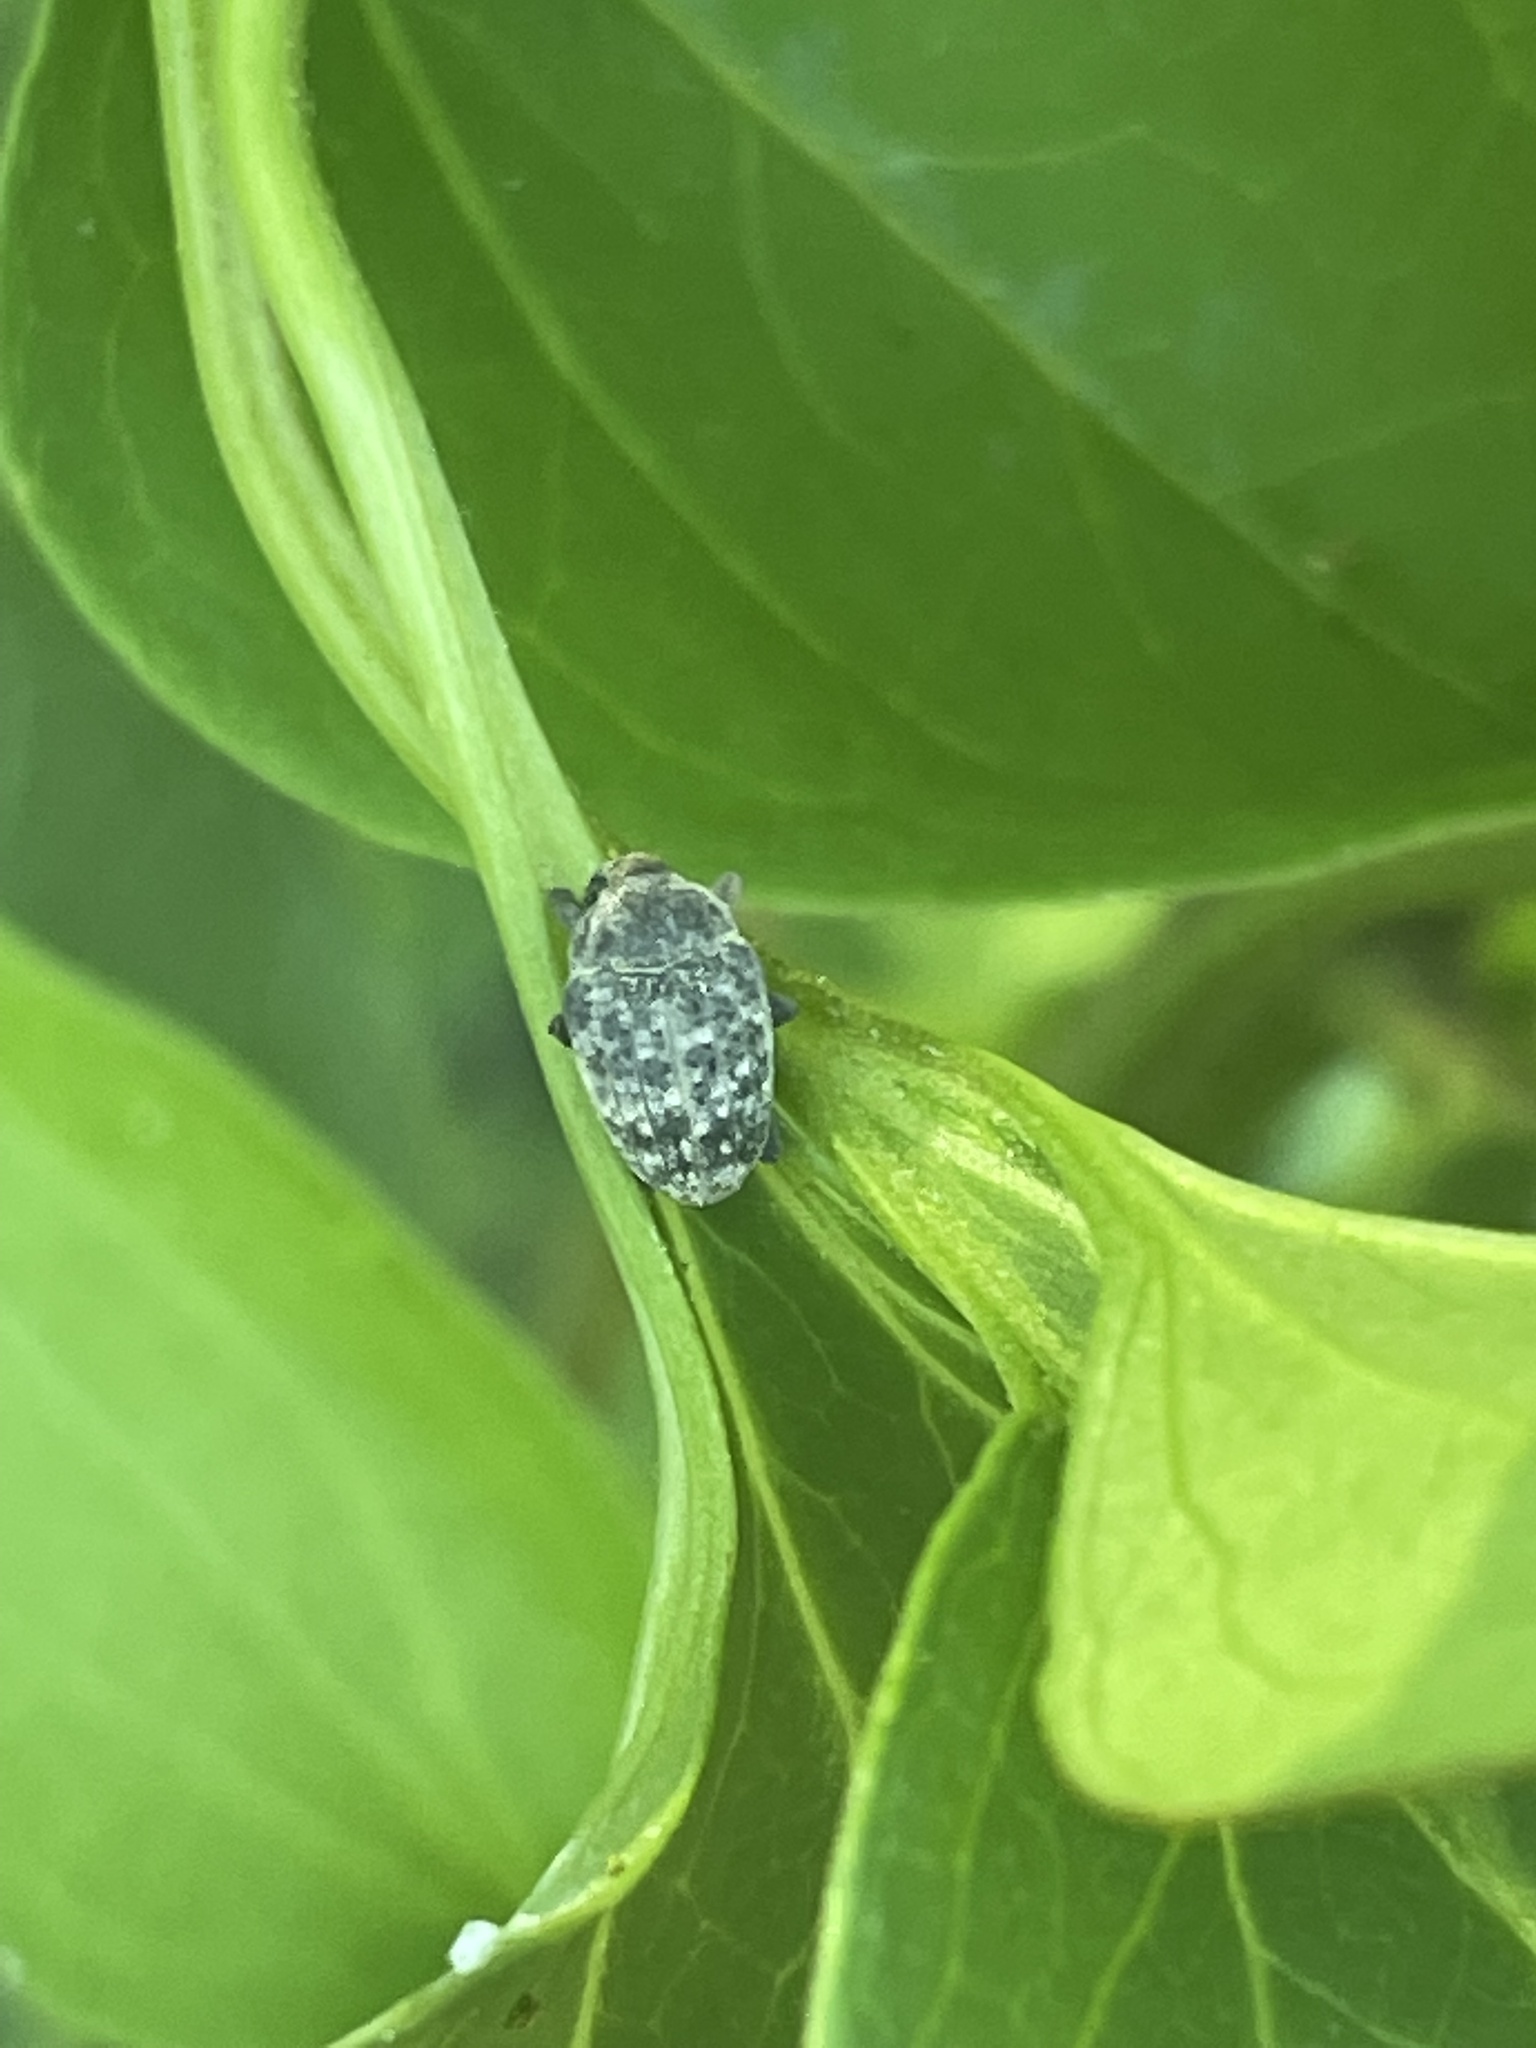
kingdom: Animalia
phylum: Arthropoda
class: Insecta
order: Coleoptera
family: Curculionidae
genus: Rhyssomatus
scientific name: Rhyssomatus lineaticollis
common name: Milkweed stem weevil
